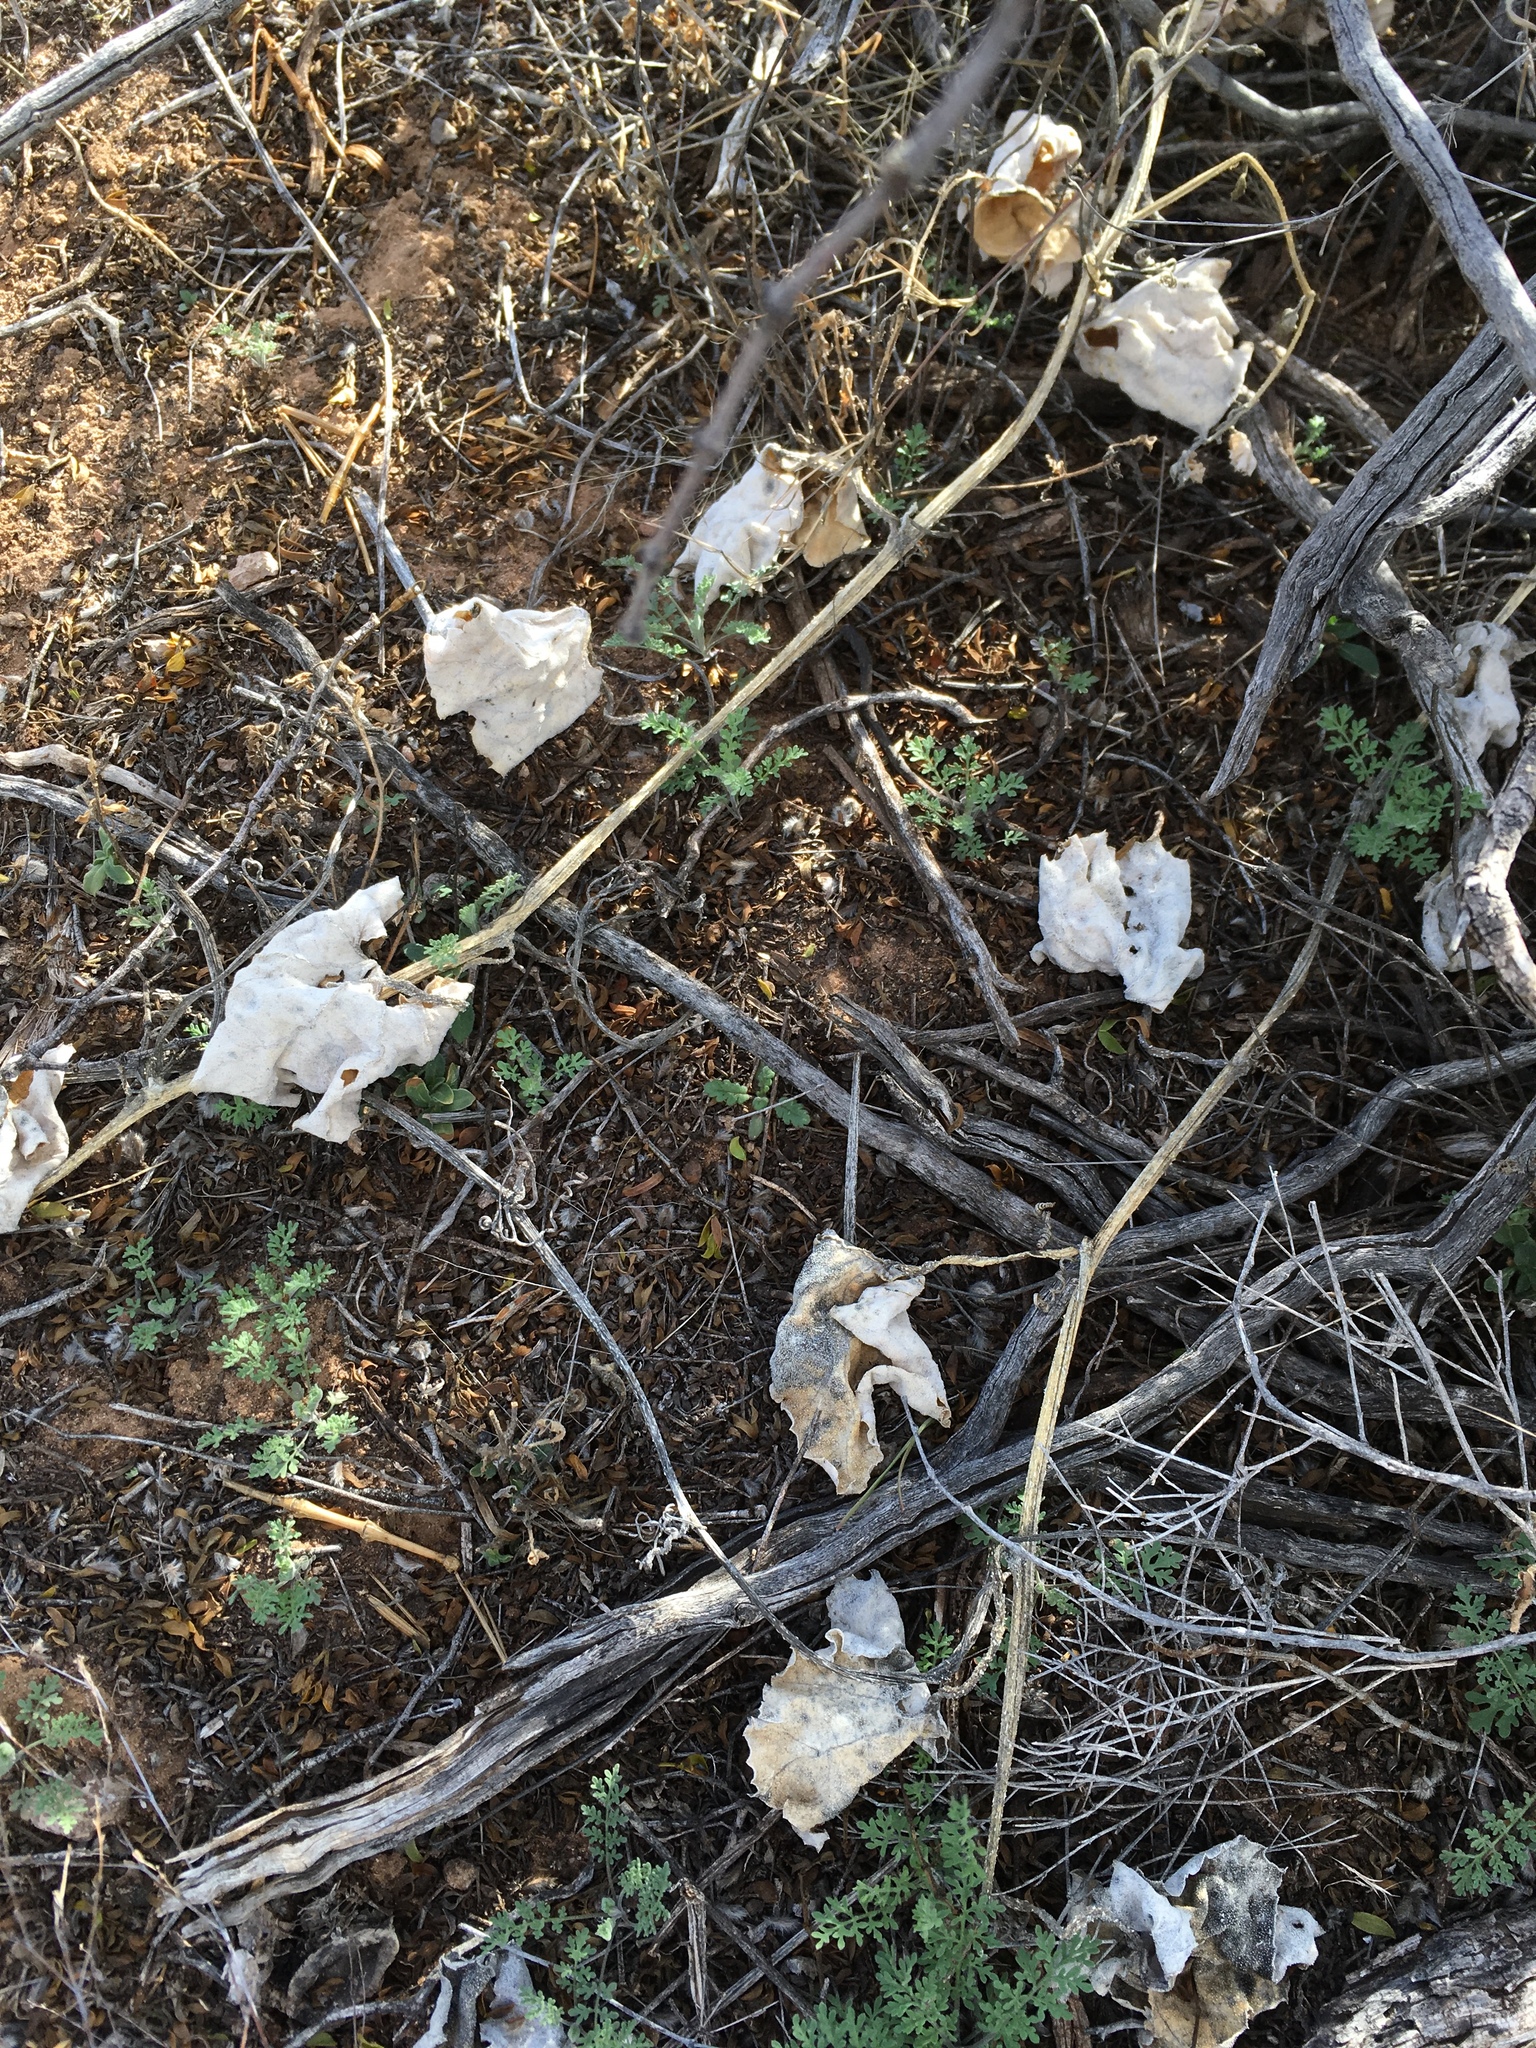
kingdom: Plantae
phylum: Tracheophyta
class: Magnoliopsida
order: Cucurbitales
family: Cucurbitaceae
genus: Apodanthera
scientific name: Apodanthera undulata
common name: Melon-loco
